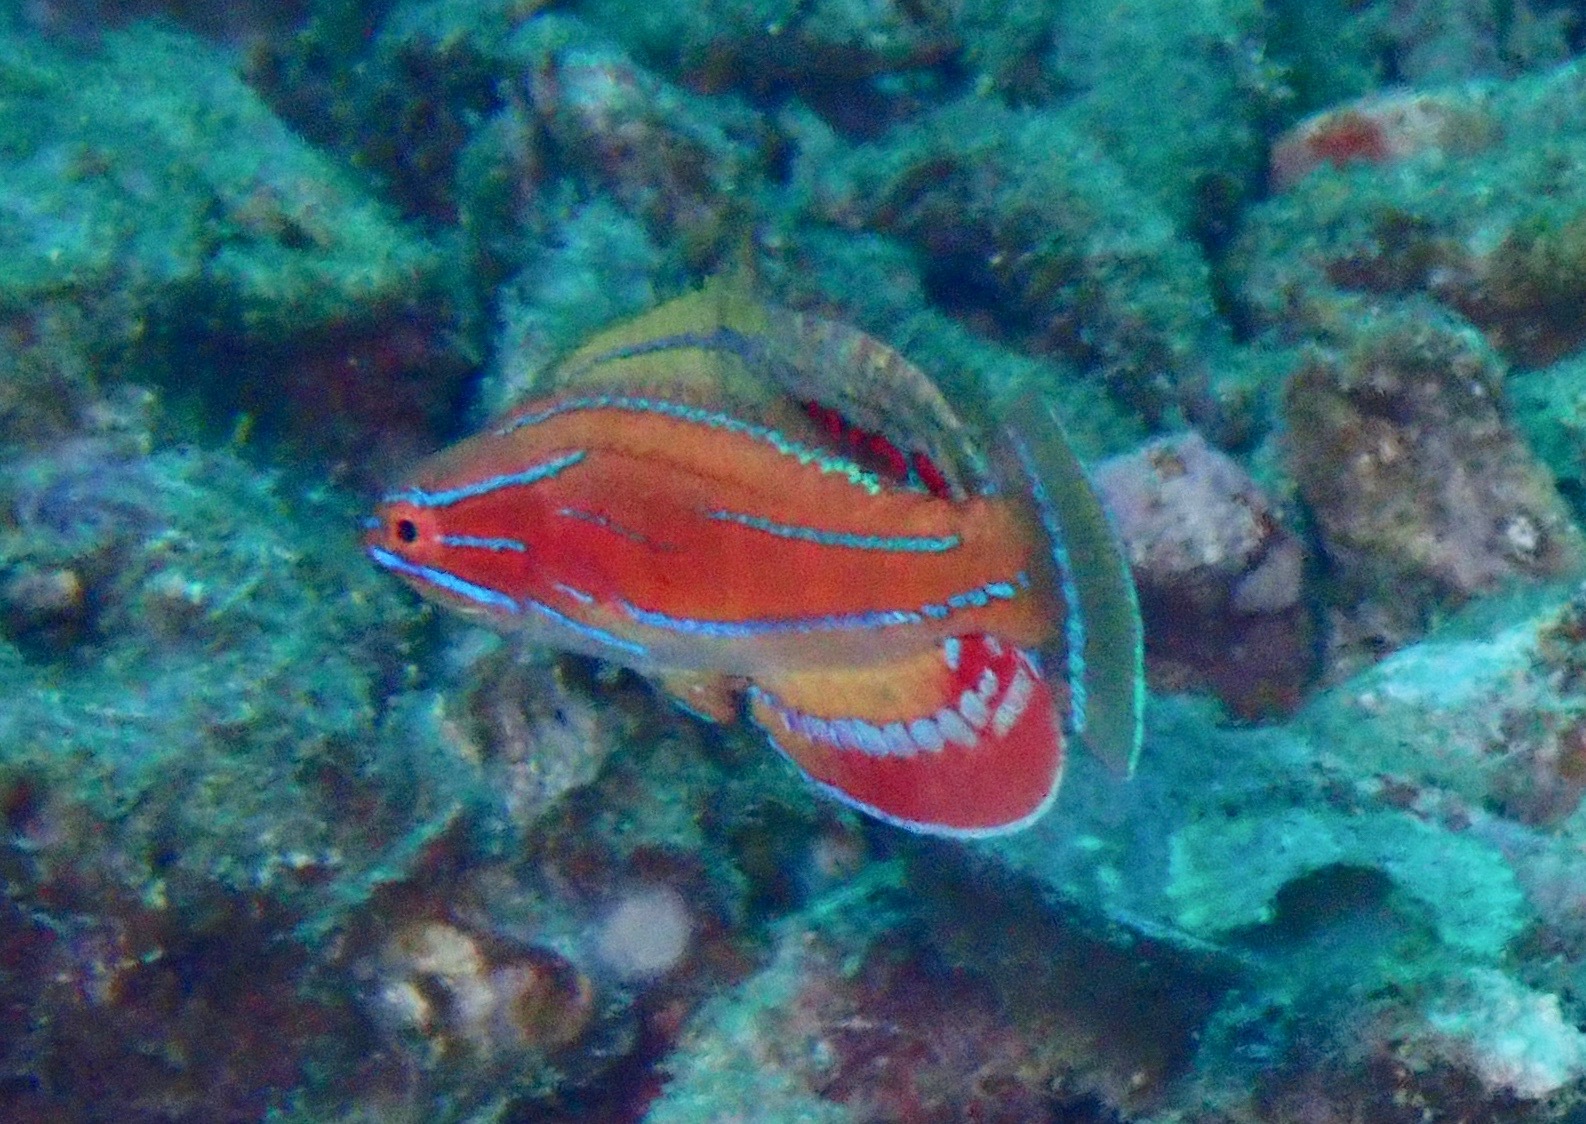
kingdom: Animalia
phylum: Chordata
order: Perciformes
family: Labridae
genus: Paracheilinus
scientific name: Paracheilinus mccoskeri
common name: Mccosker's flasher
